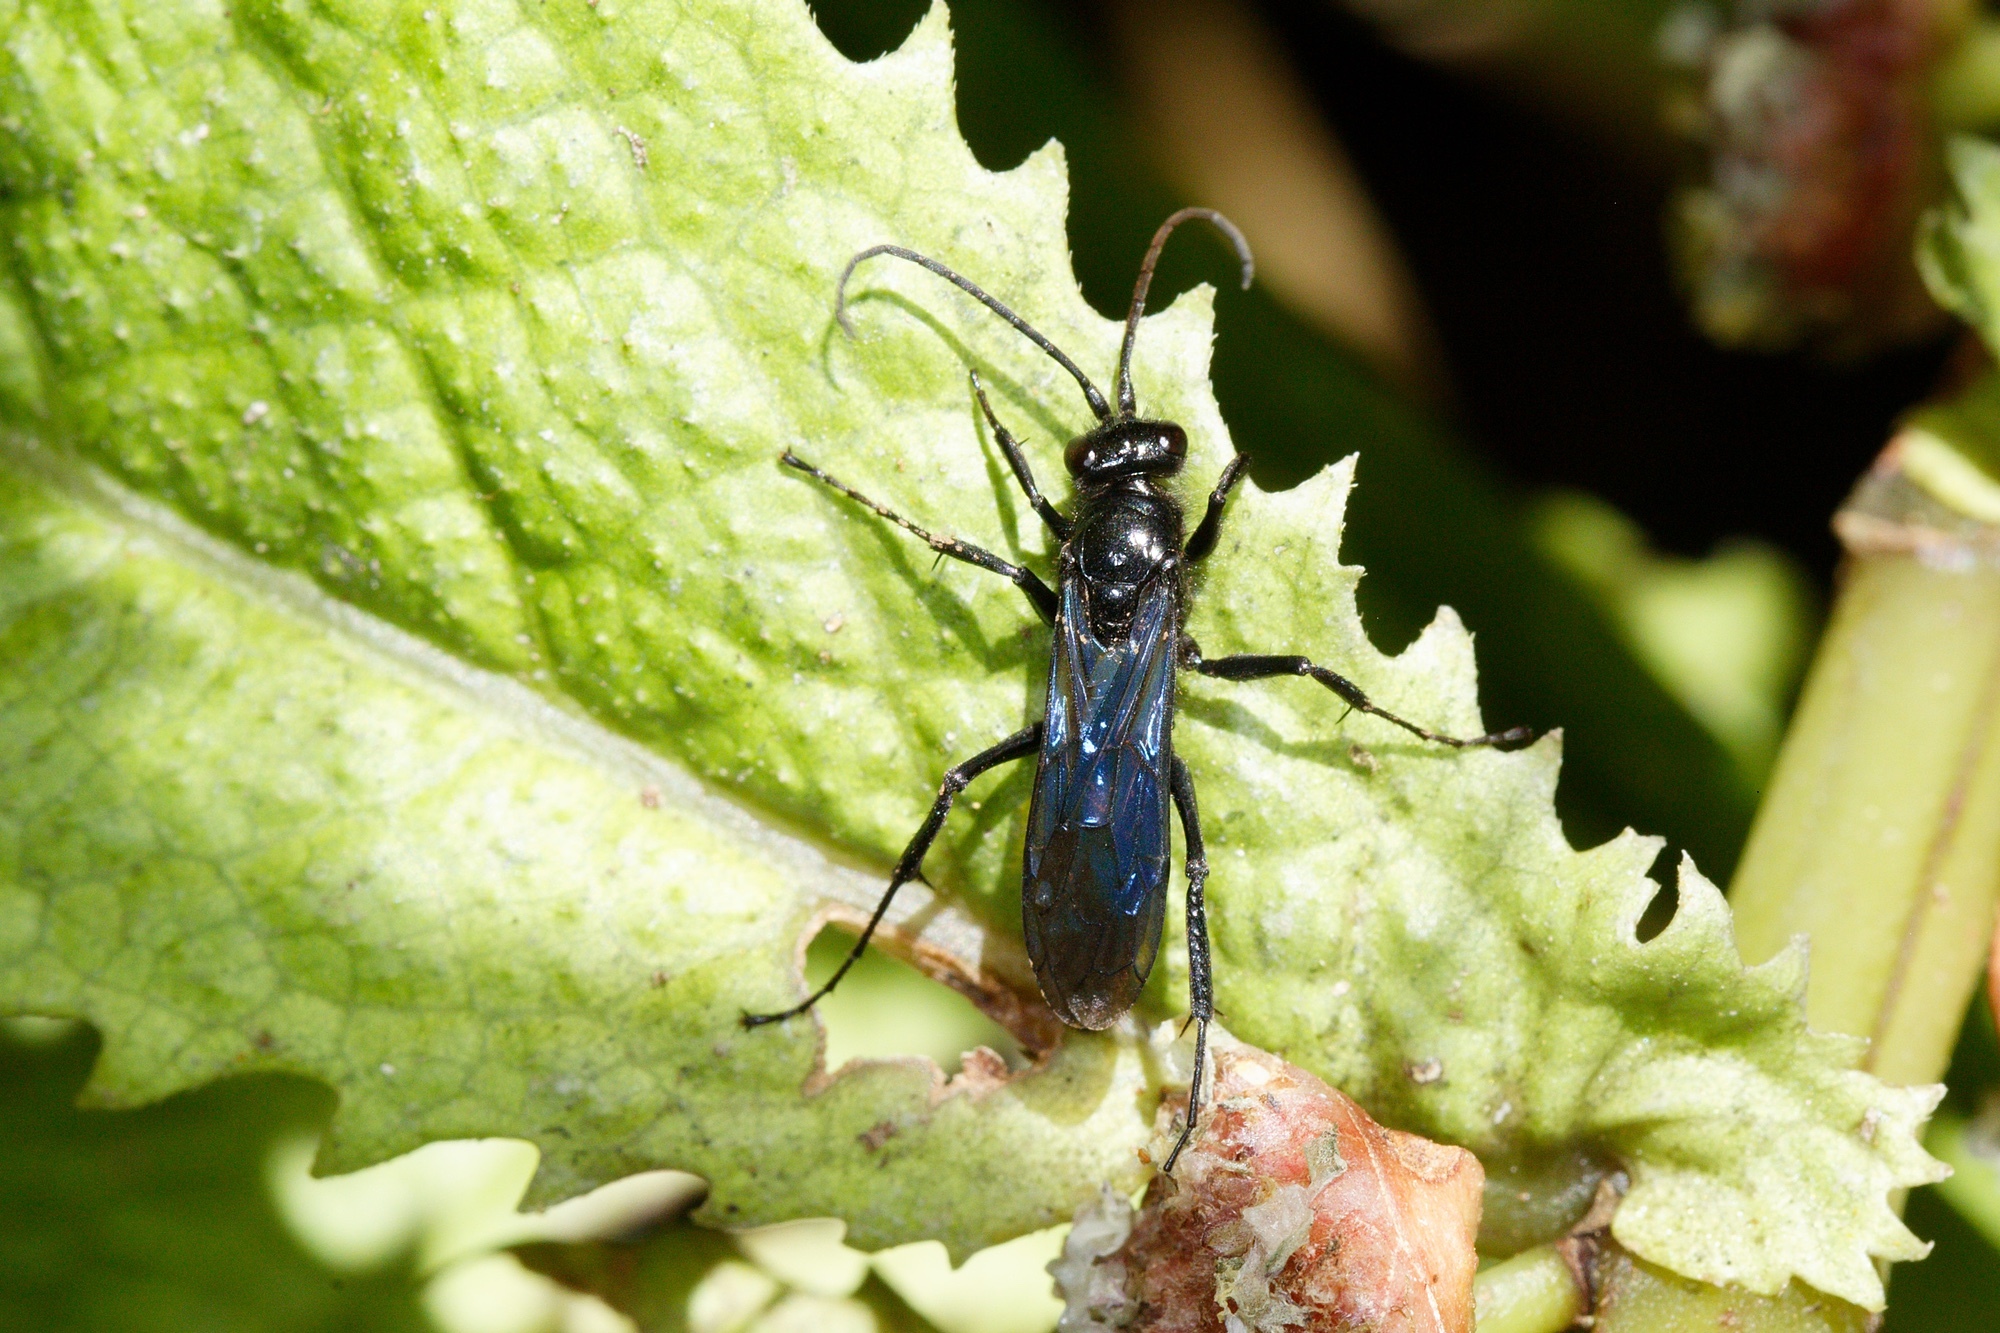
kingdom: Animalia
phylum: Arthropoda
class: Insecta
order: Hymenoptera
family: Pompilidae
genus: Priocnemis
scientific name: Priocnemis monachus
